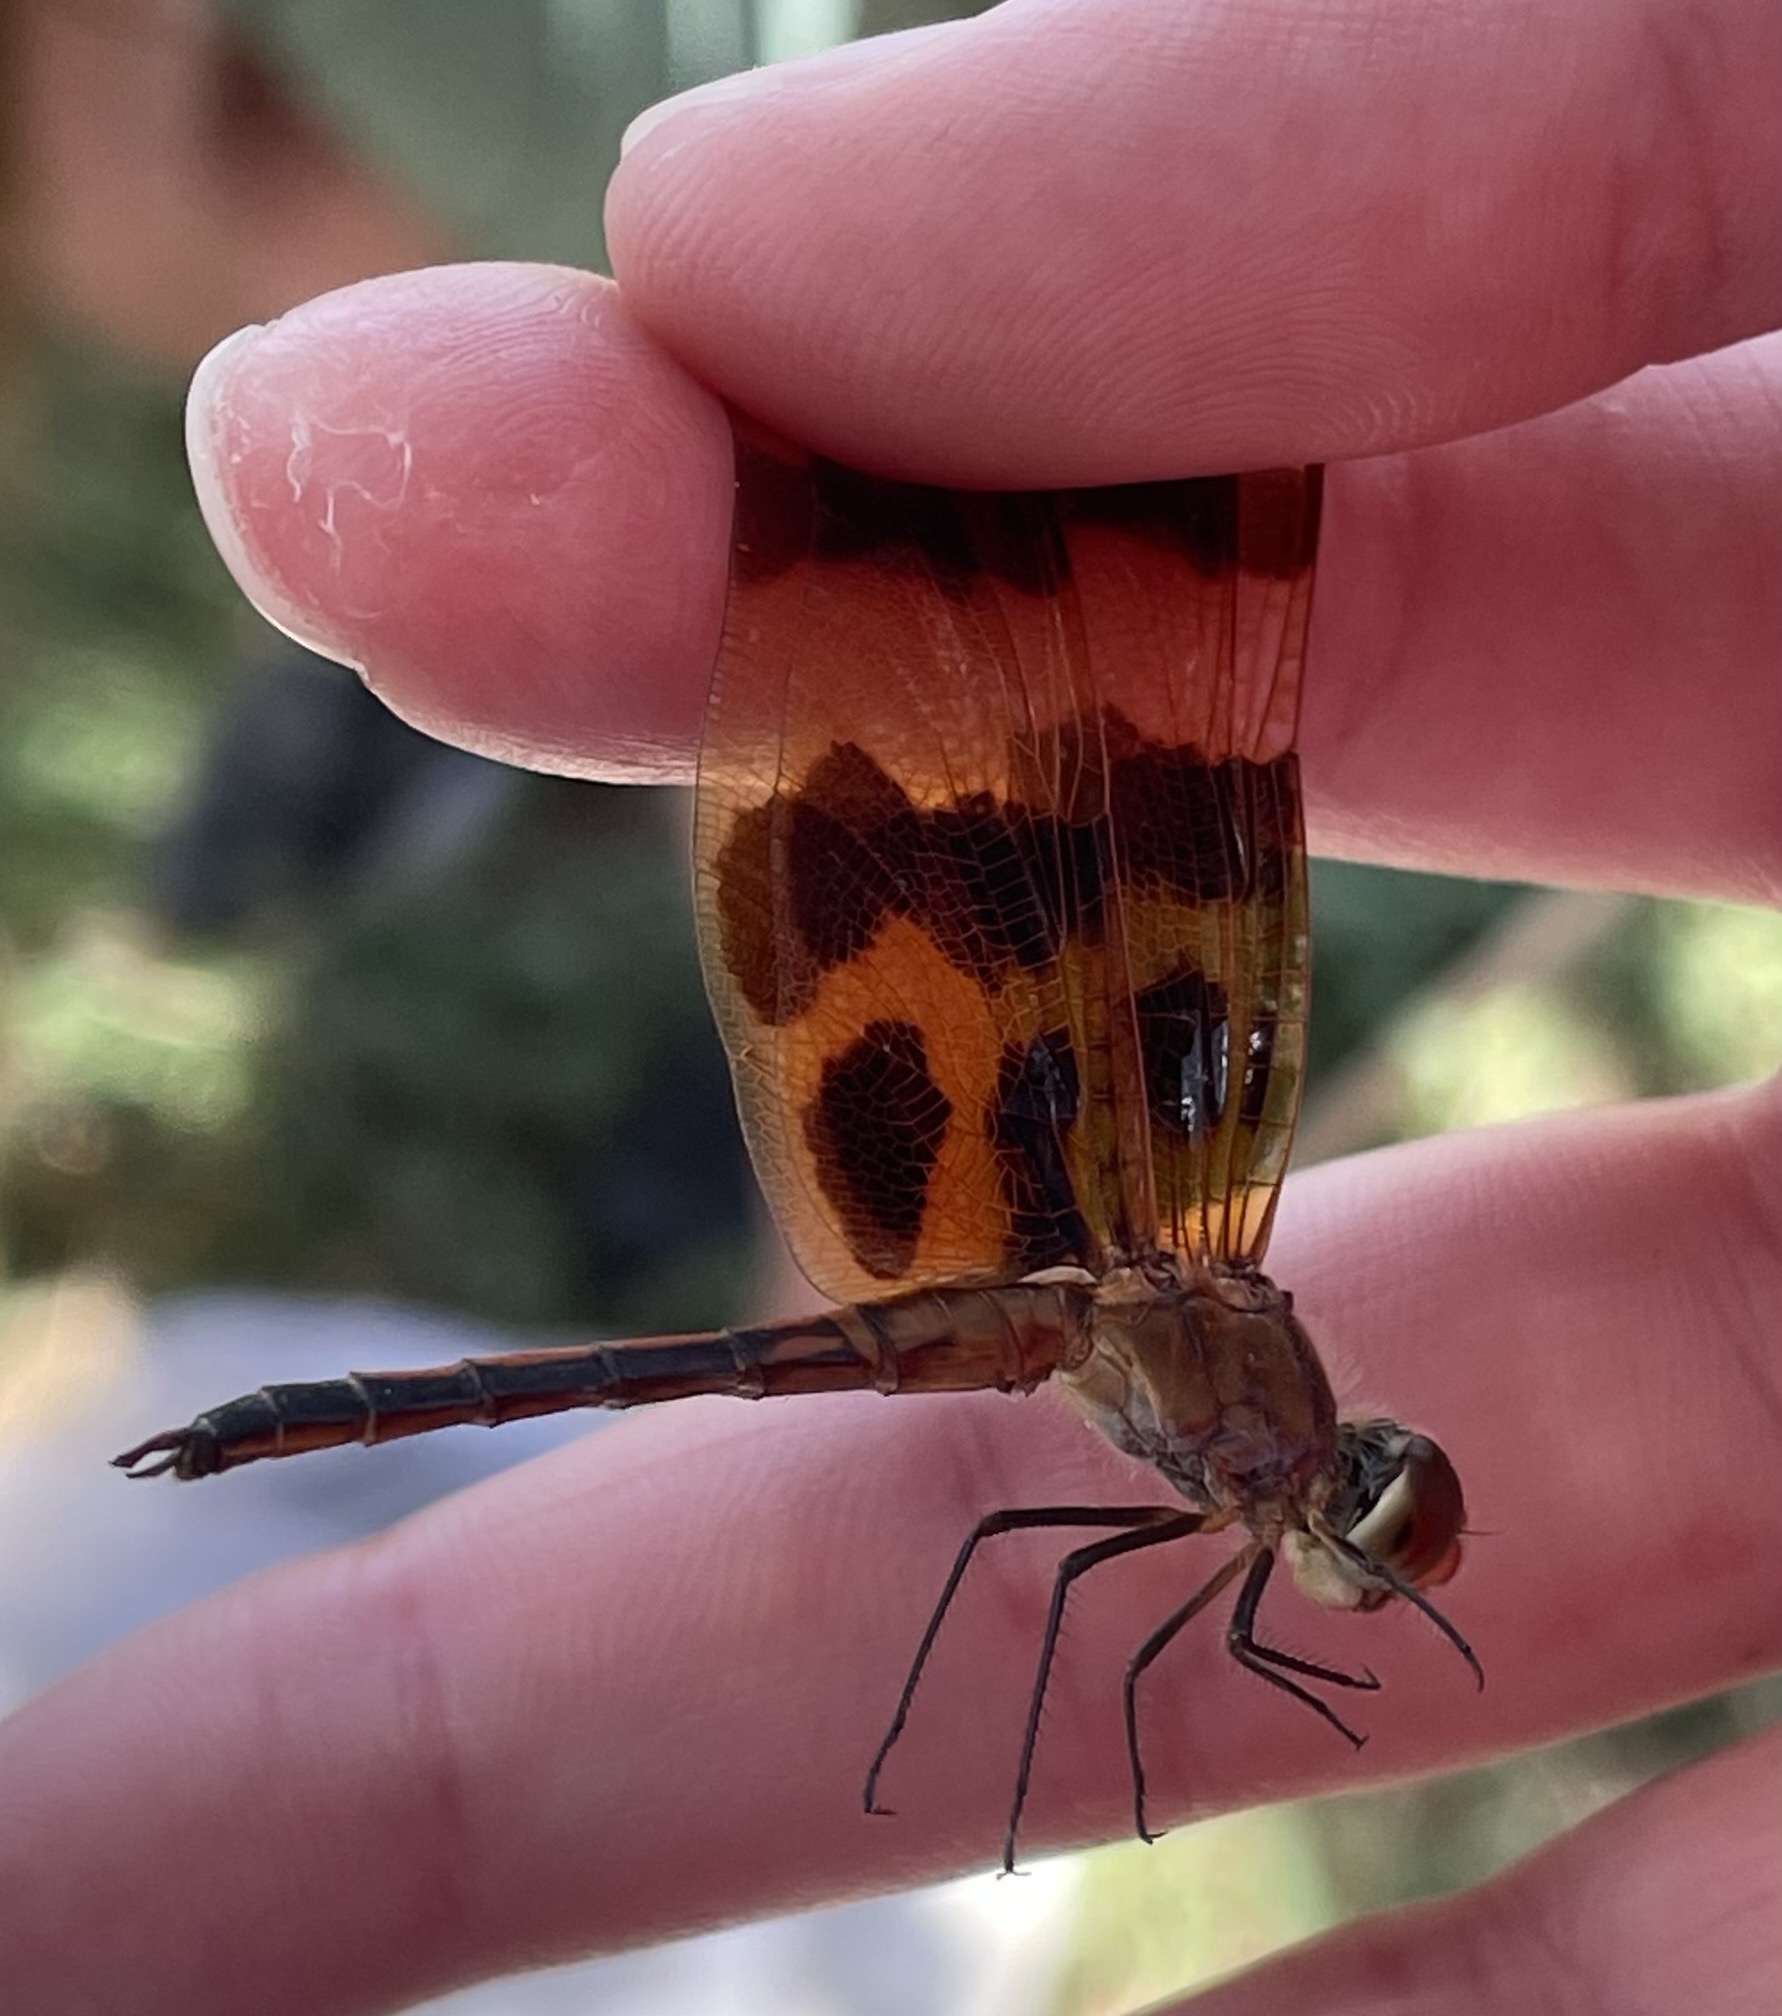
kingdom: Animalia
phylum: Arthropoda
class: Insecta
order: Odonata
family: Libellulidae
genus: Celithemis
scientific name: Celithemis eponina
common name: Halloween pennant
